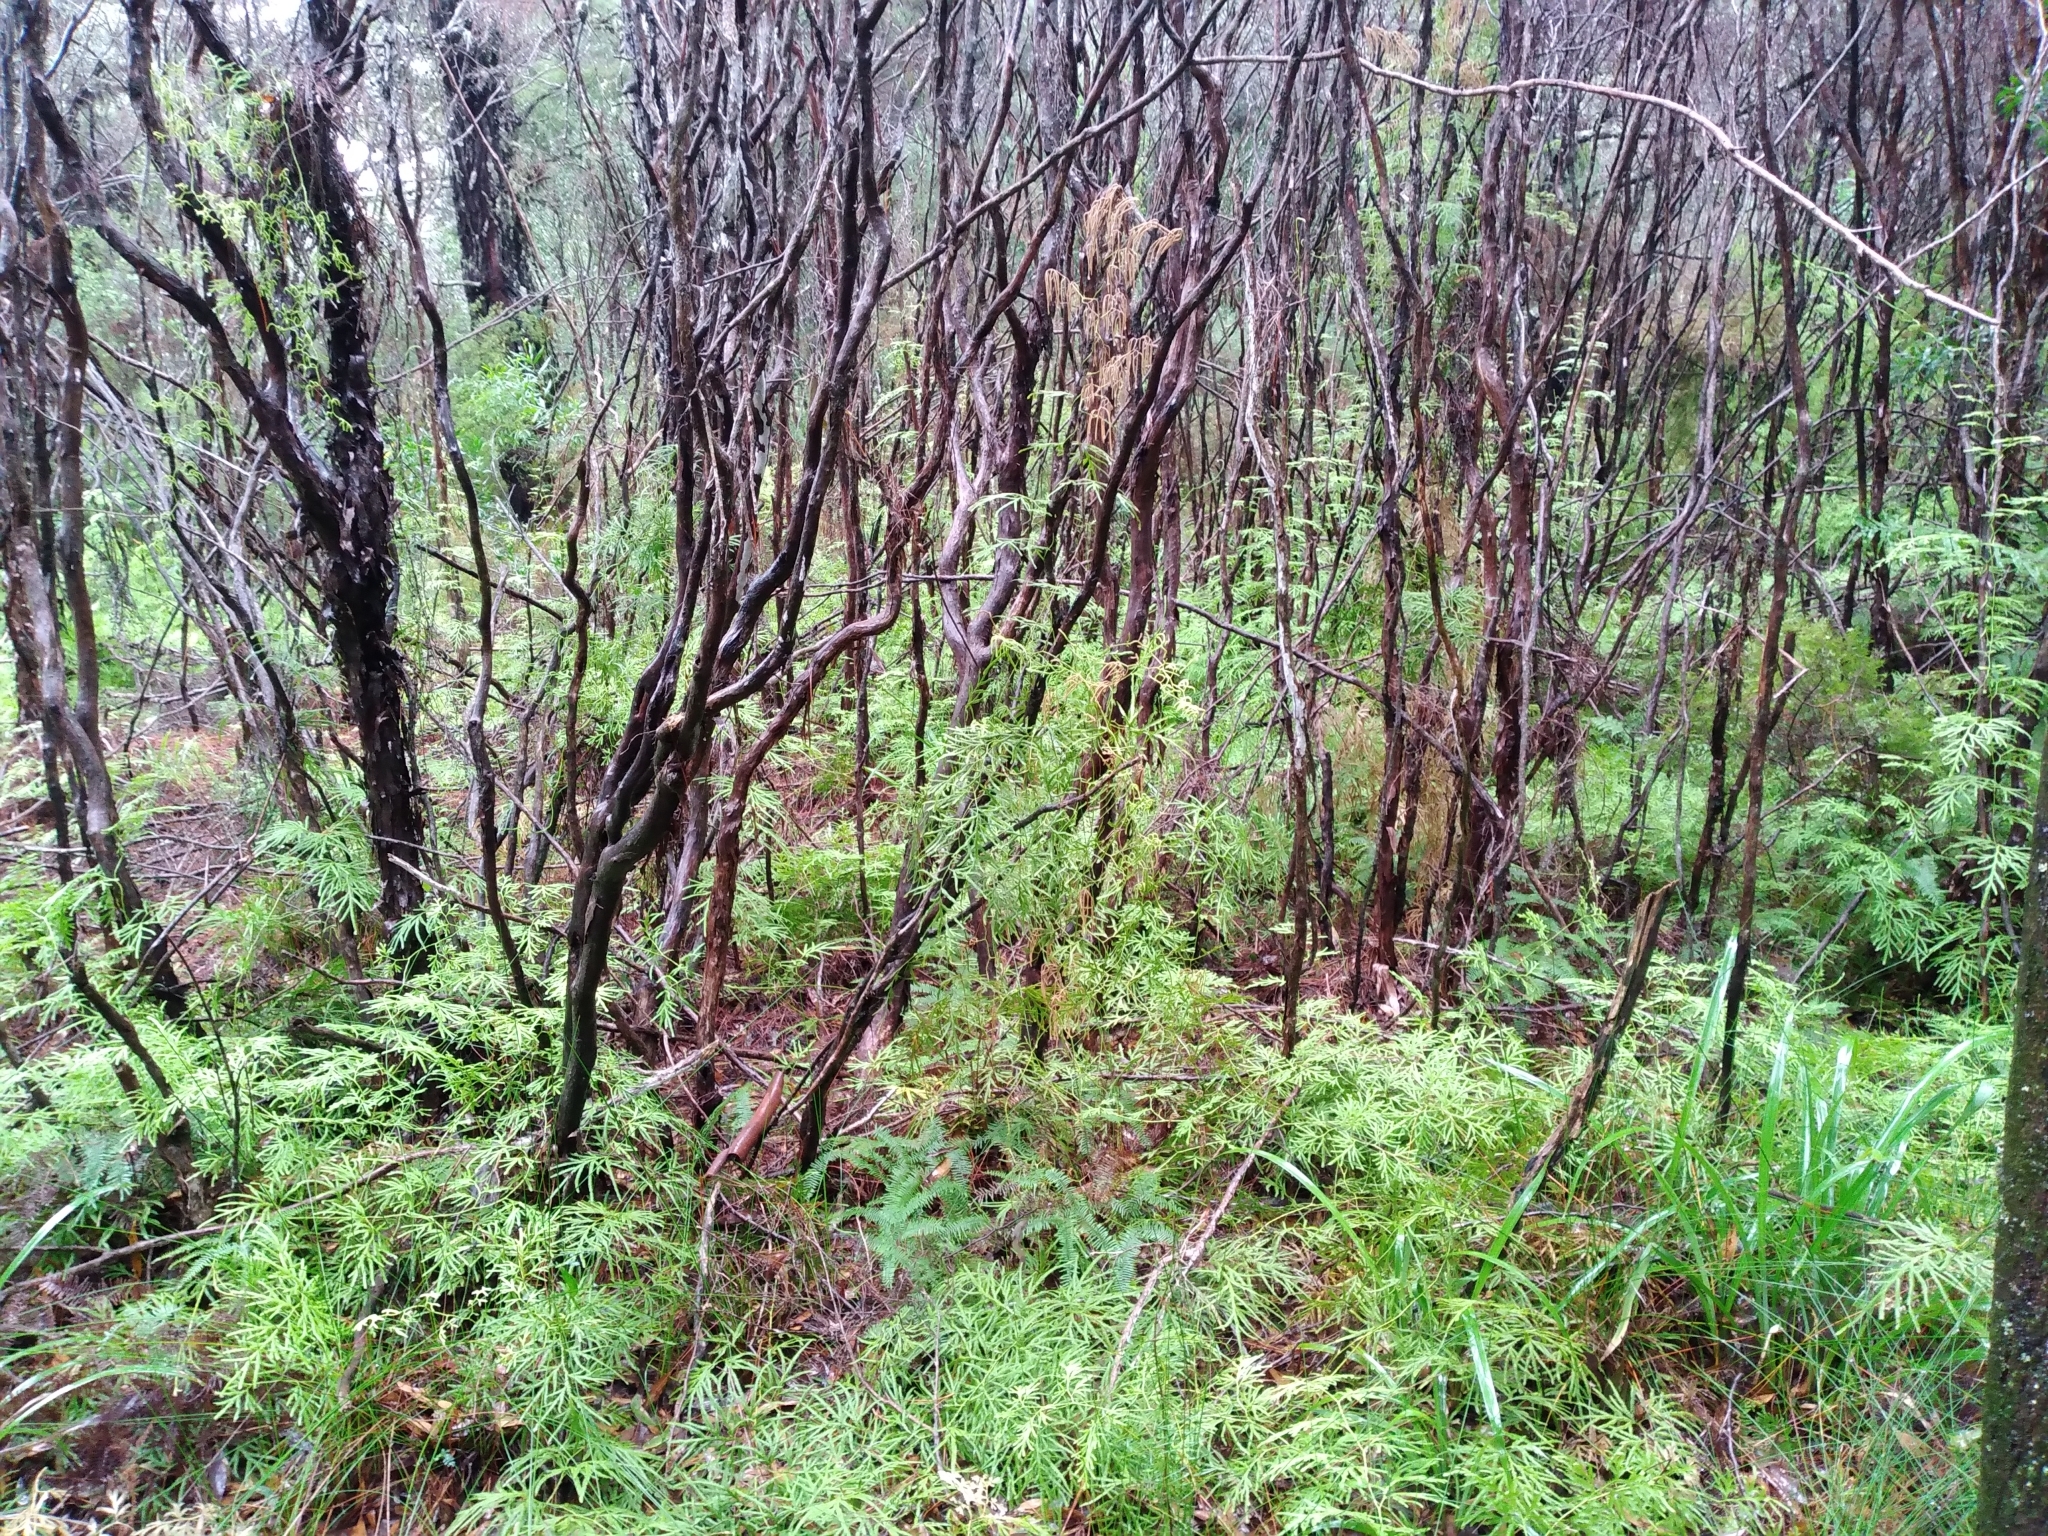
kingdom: Plantae
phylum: Tracheophyta
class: Lycopodiopsida
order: Lycopodiales
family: Lycopodiaceae
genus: Lycopodium
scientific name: Lycopodium volubile
